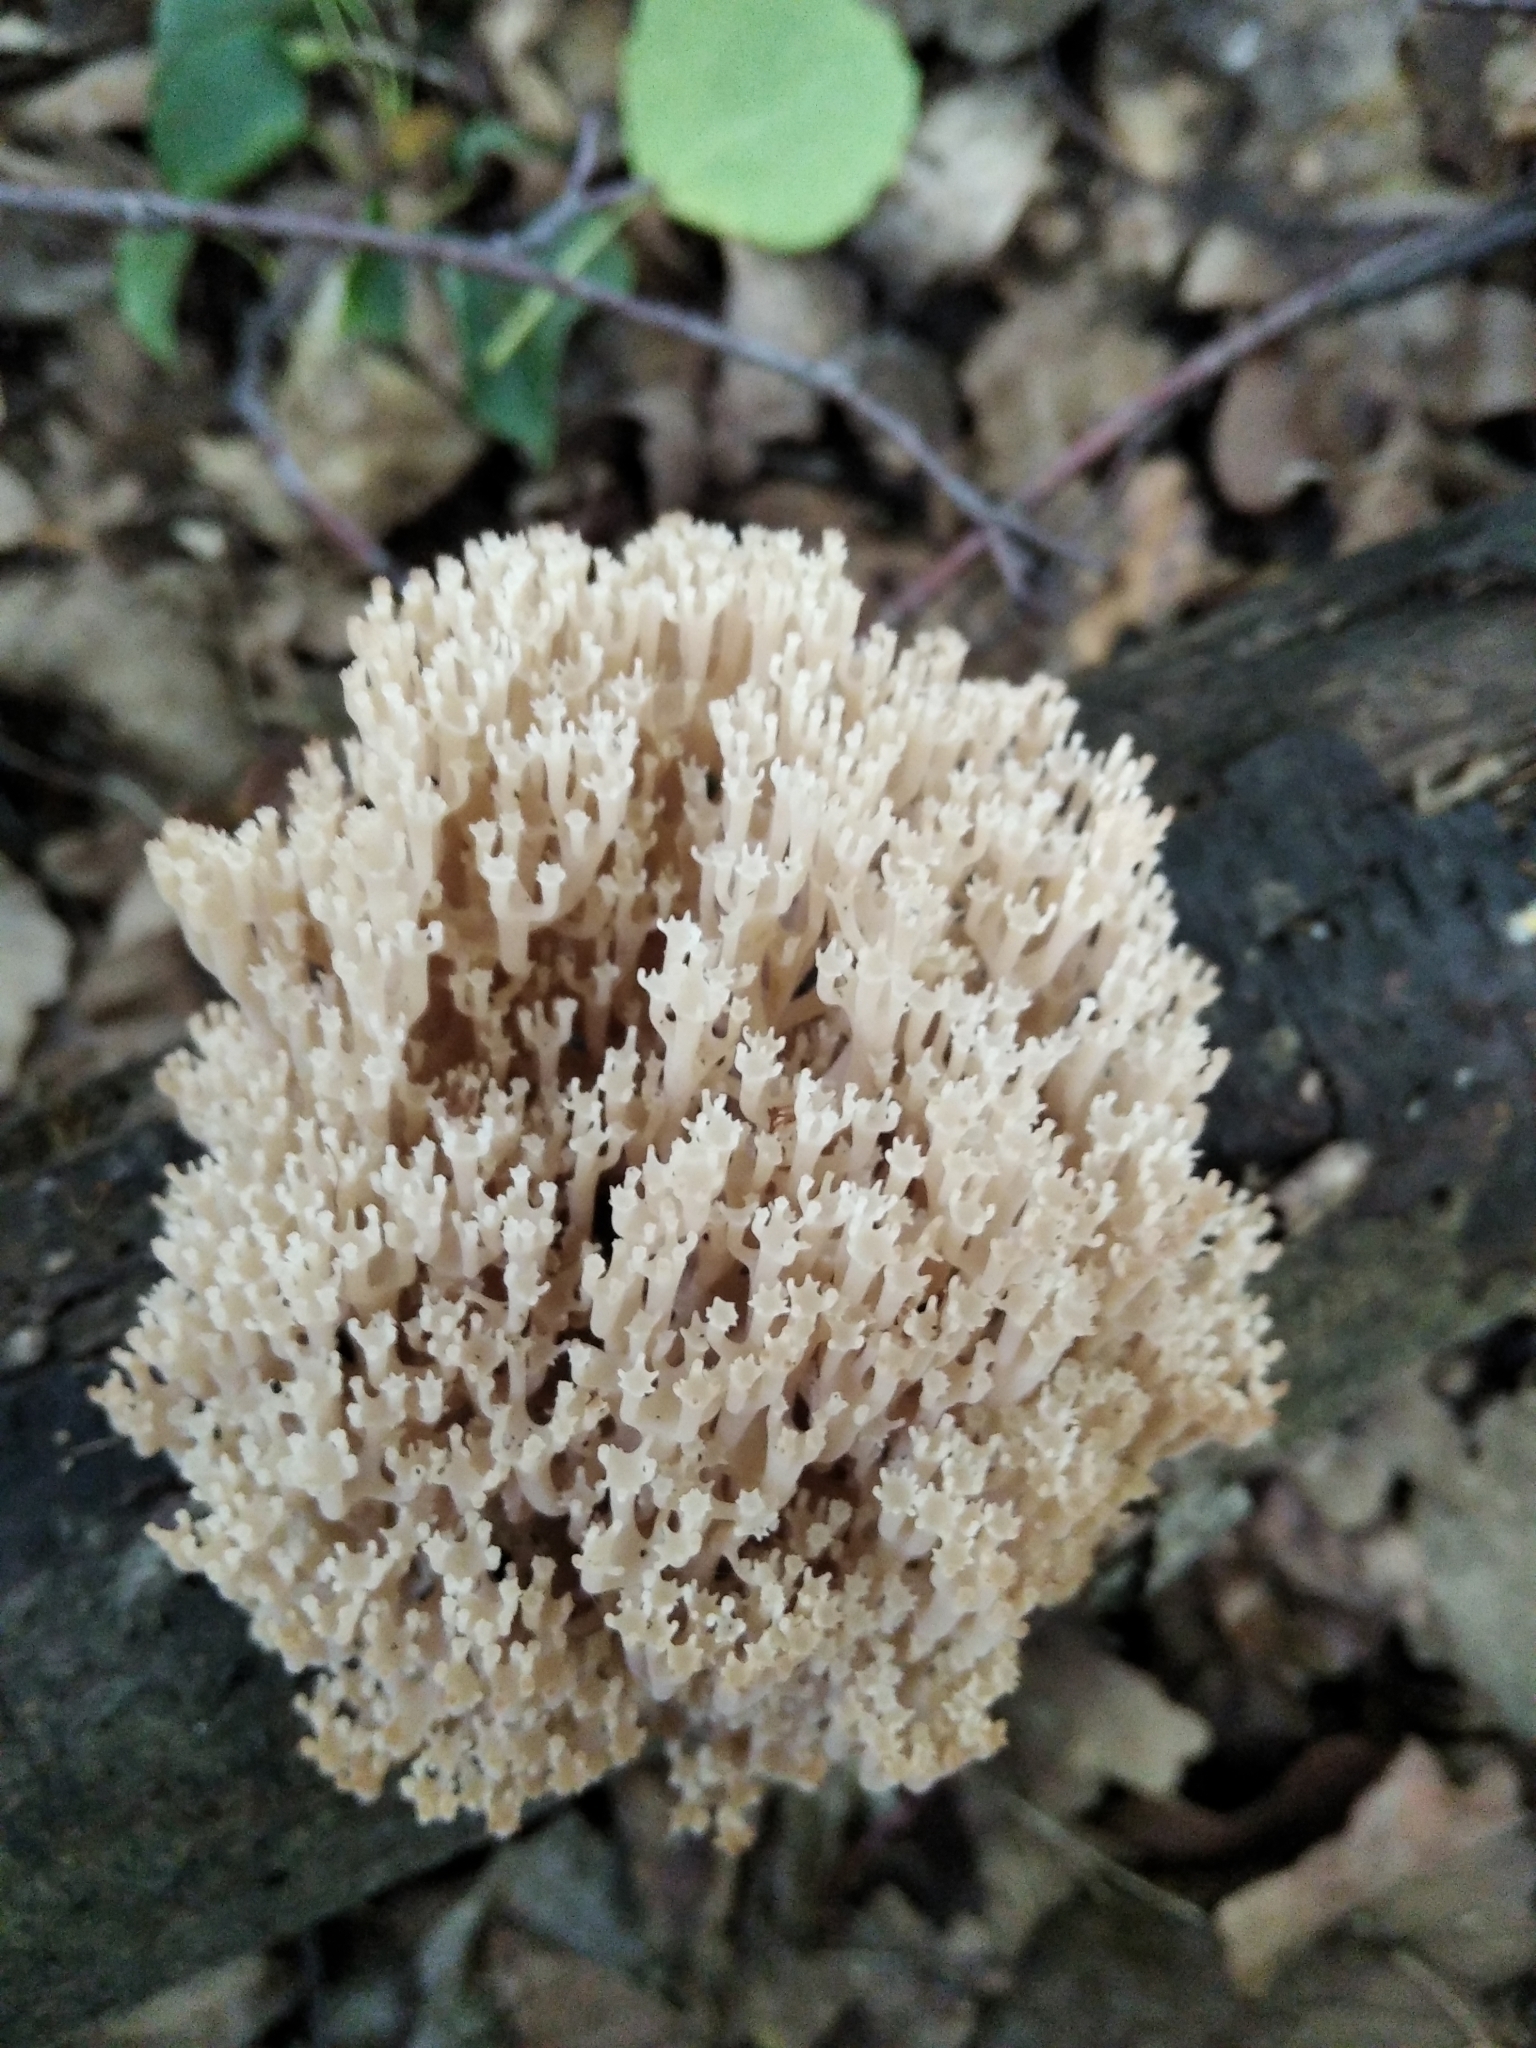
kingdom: Fungi
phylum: Basidiomycota
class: Agaricomycetes
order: Russulales
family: Auriscalpiaceae
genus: Artomyces
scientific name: Artomyces pyxidatus
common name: Crown-tipped coral fungus
